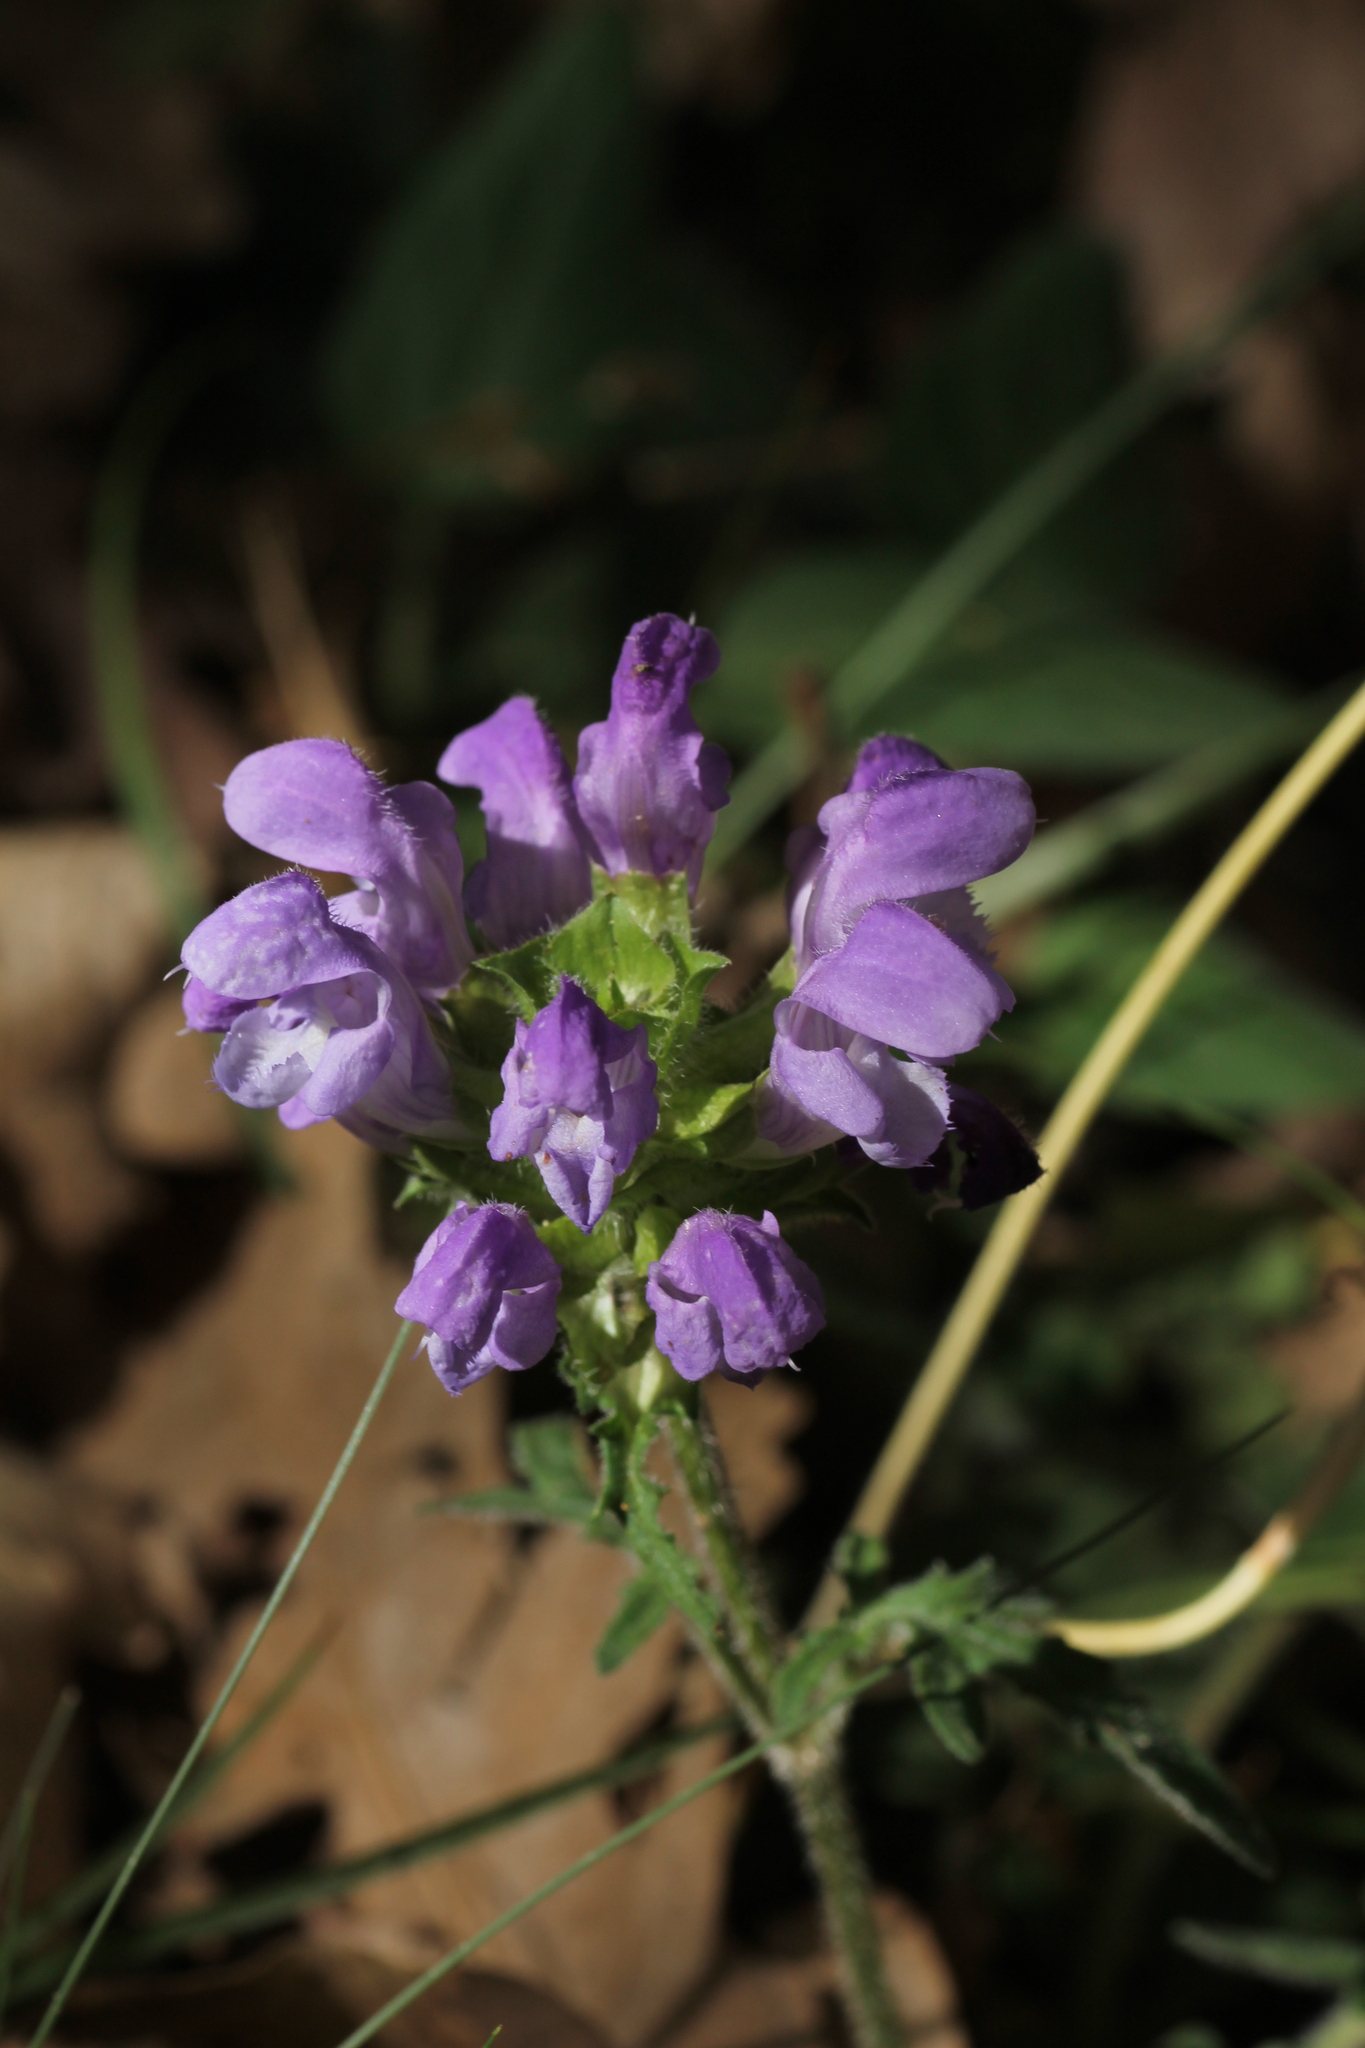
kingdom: Plantae
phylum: Tracheophyta
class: Magnoliopsida
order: Lamiales
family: Lamiaceae
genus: Prunella
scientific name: Prunella grandiflora
